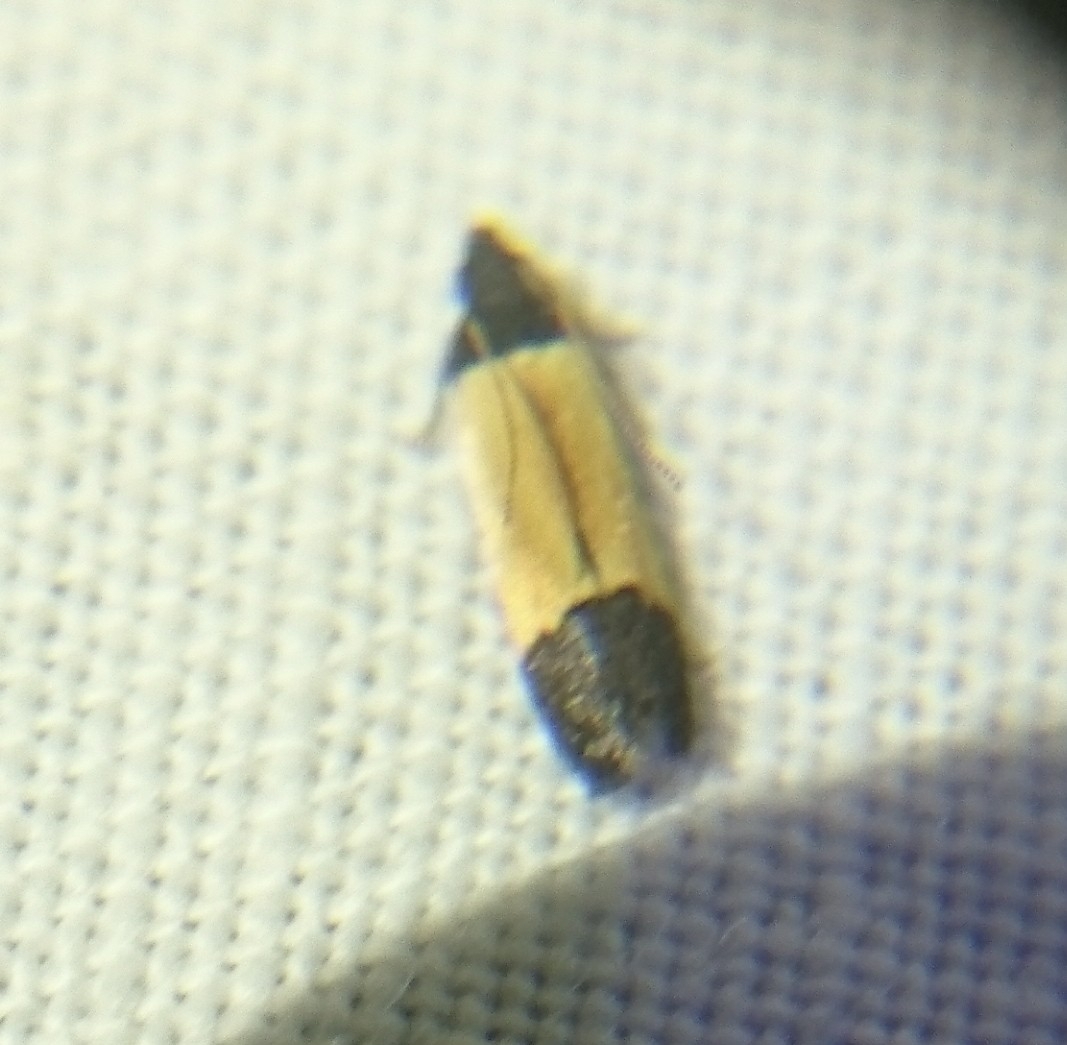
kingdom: Animalia
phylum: Arthropoda
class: Insecta
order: Lepidoptera
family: Gelechiidae
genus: Anacampsis
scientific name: Anacampsis coverdalella
